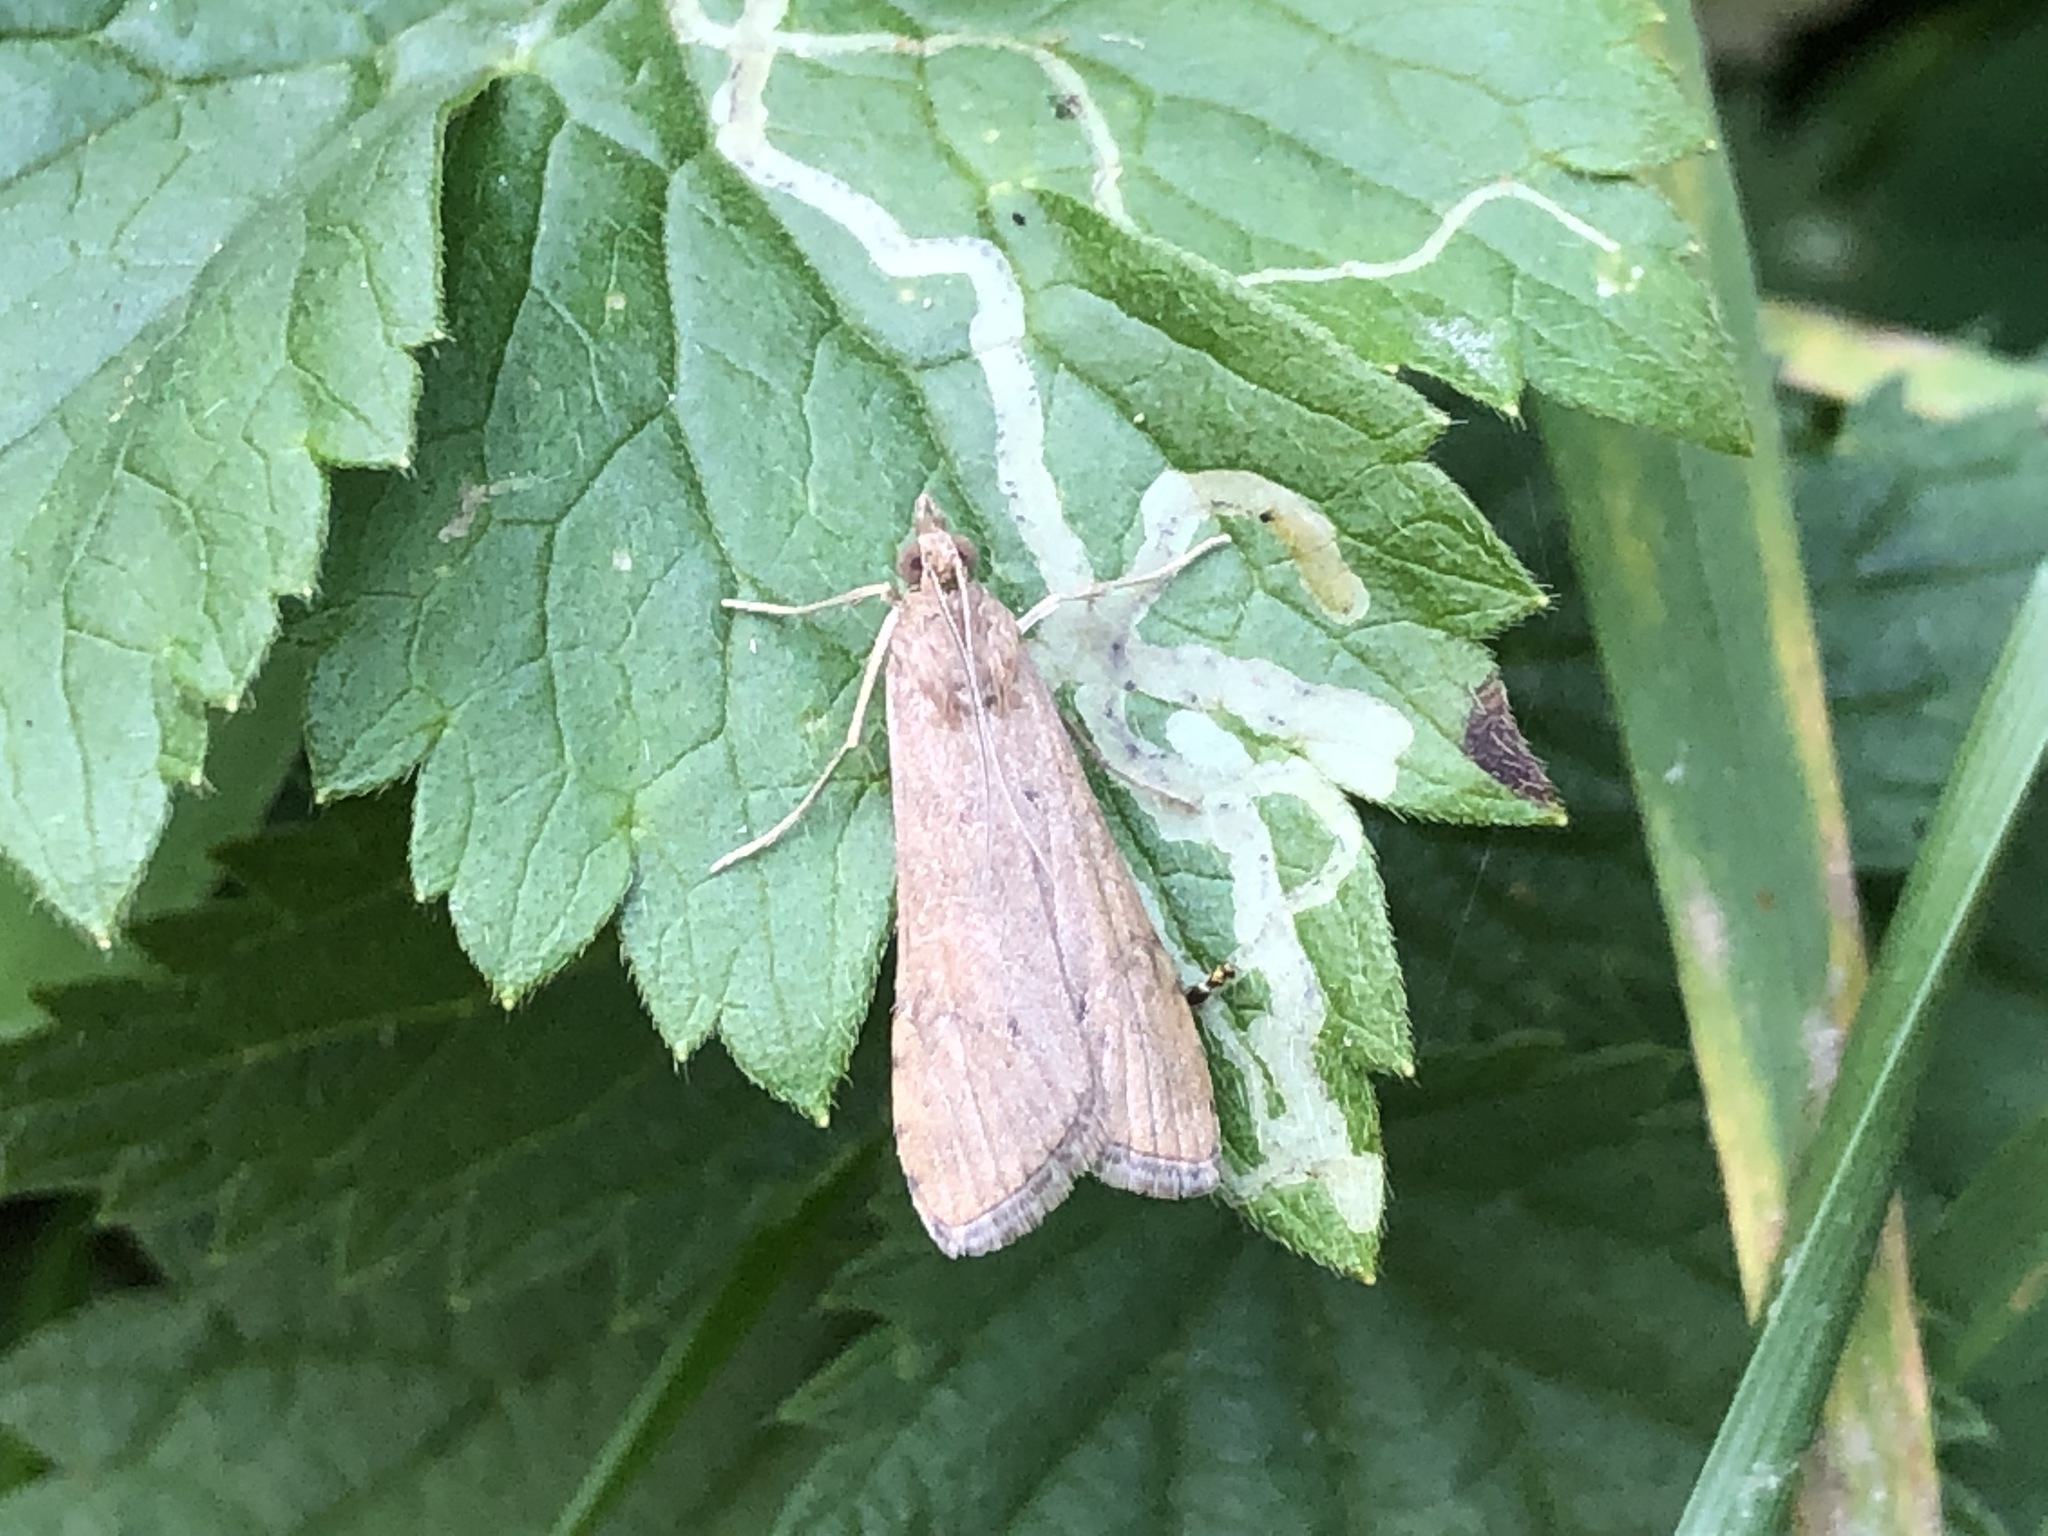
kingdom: Animalia
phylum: Arthropoda
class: Insecta
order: Lepidoptera
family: Crambidae
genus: Nomophila
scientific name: Nomophila noctuella
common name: Rush veneer
